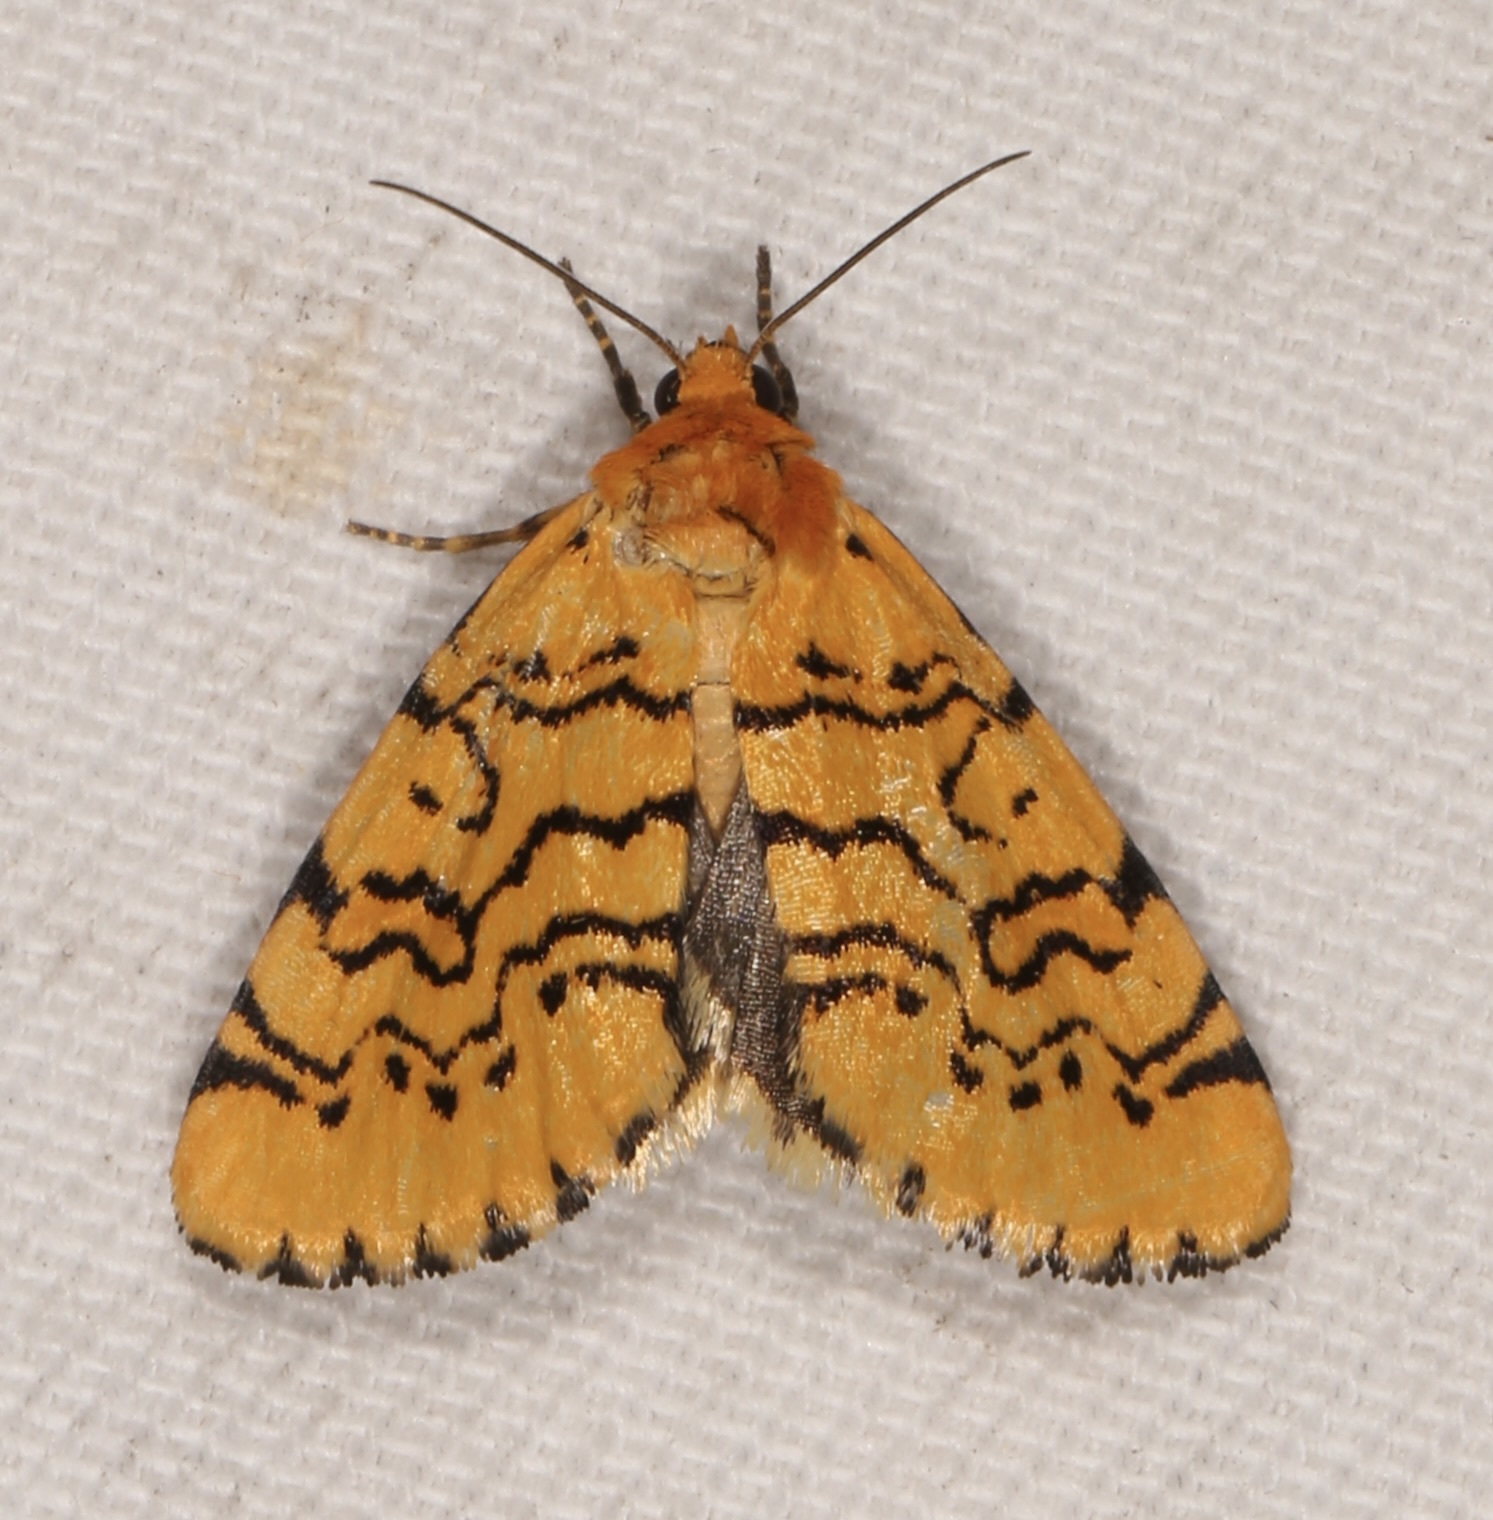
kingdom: Animalia
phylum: Arthropoda
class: Insecta
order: Lepidoptera
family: Noctuidae
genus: Chrysoecia
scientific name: Chrysoecia atrolinea
